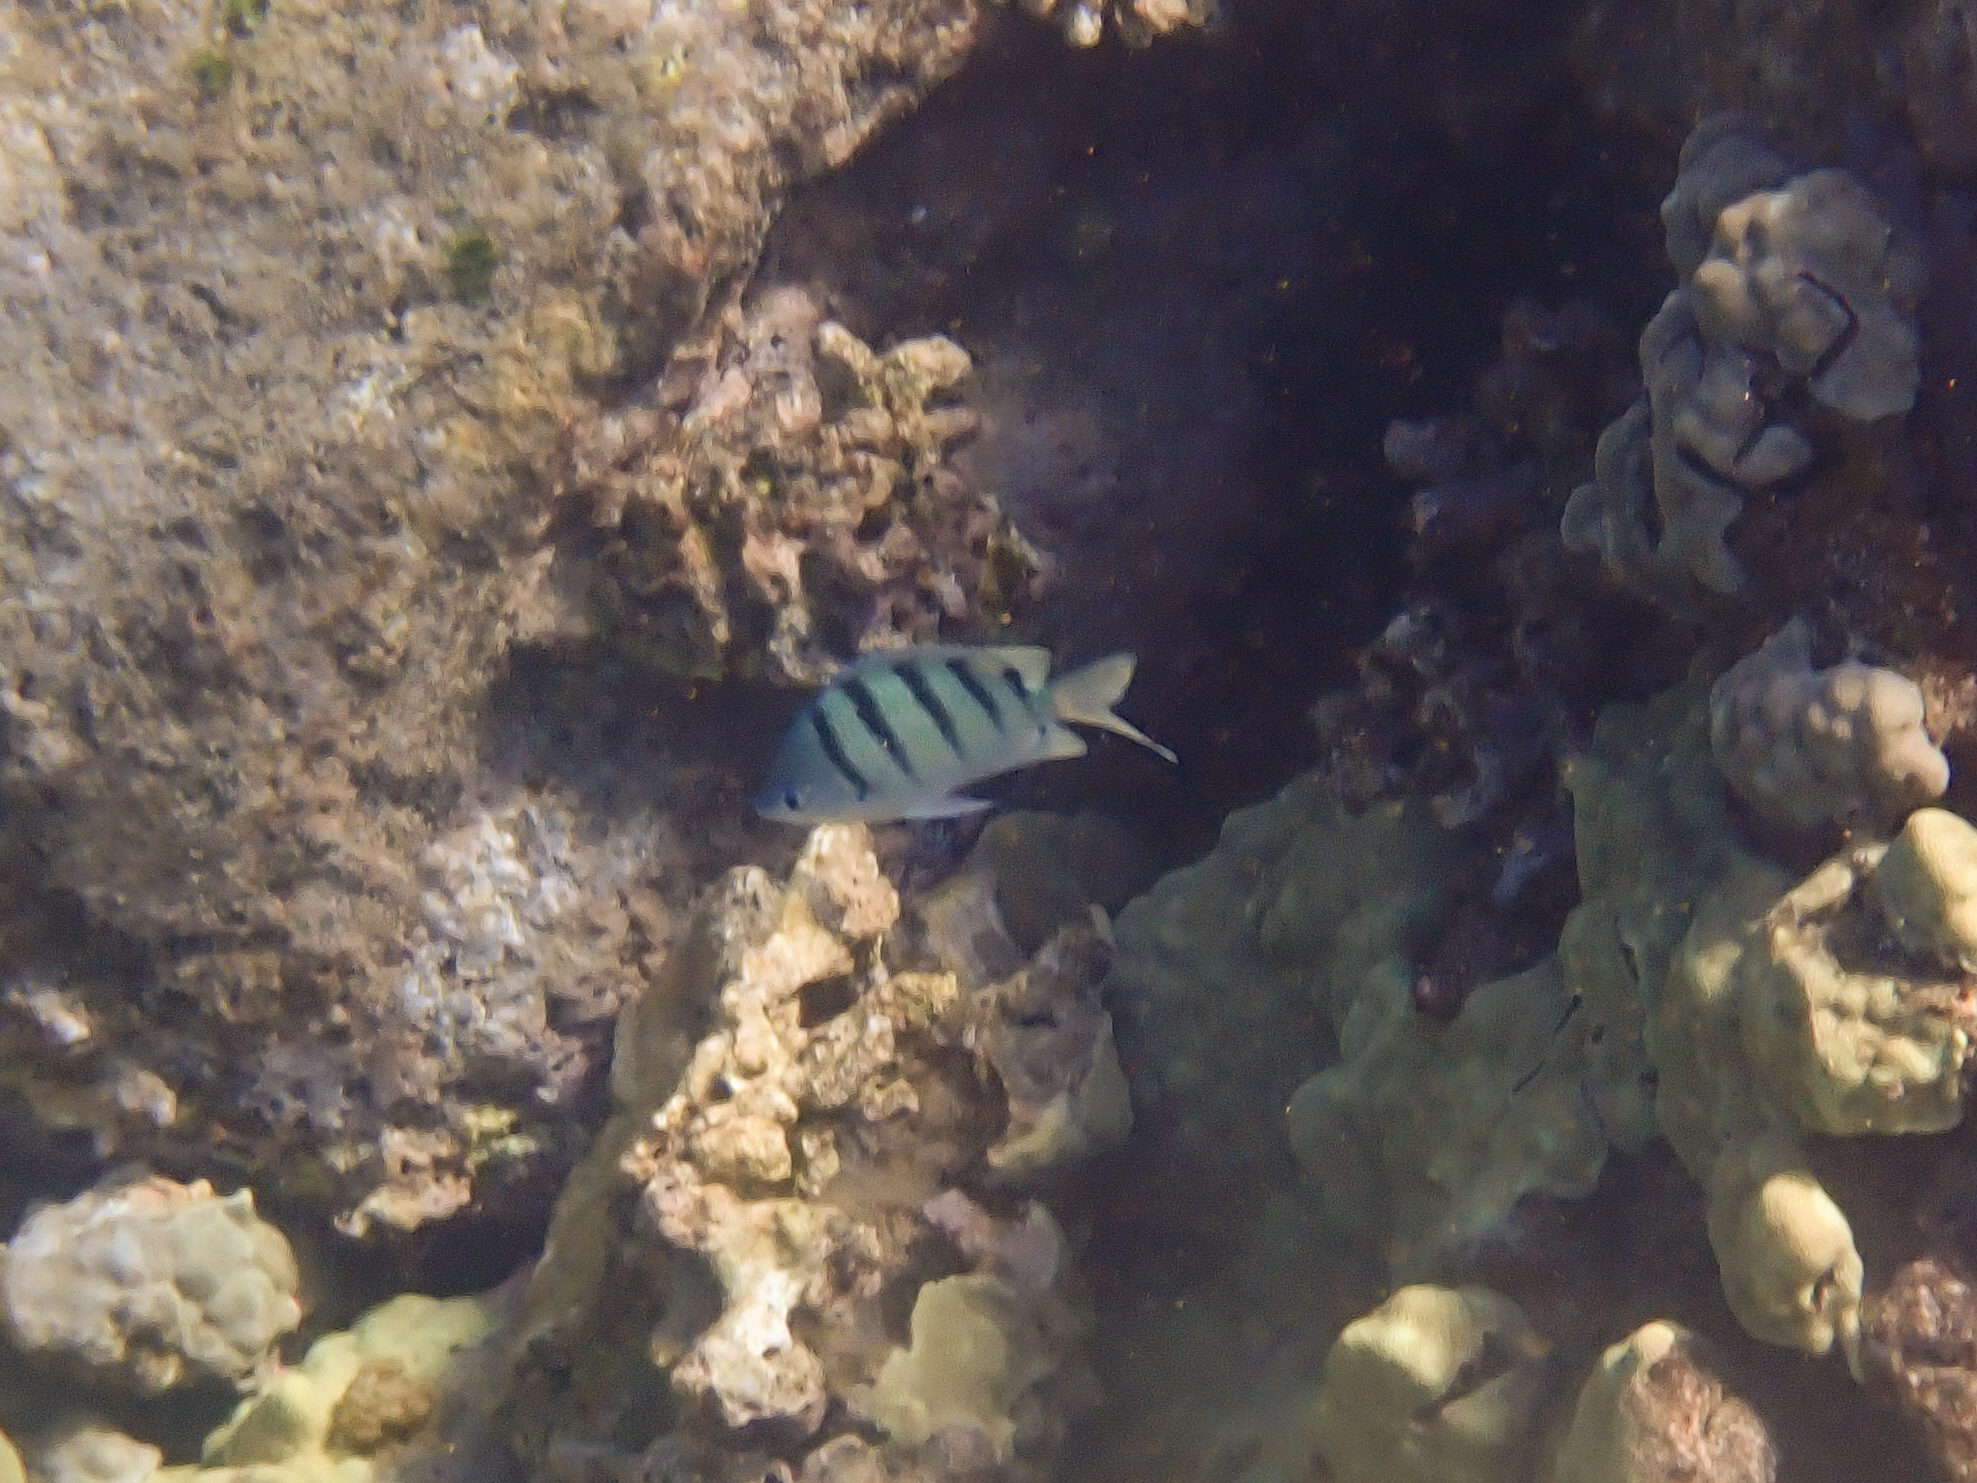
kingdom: Animalia
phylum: Chordata
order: Perciformes
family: Pomacentridae
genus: Abudefduf
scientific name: Abudefduf abdominalis
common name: Green damselfish
